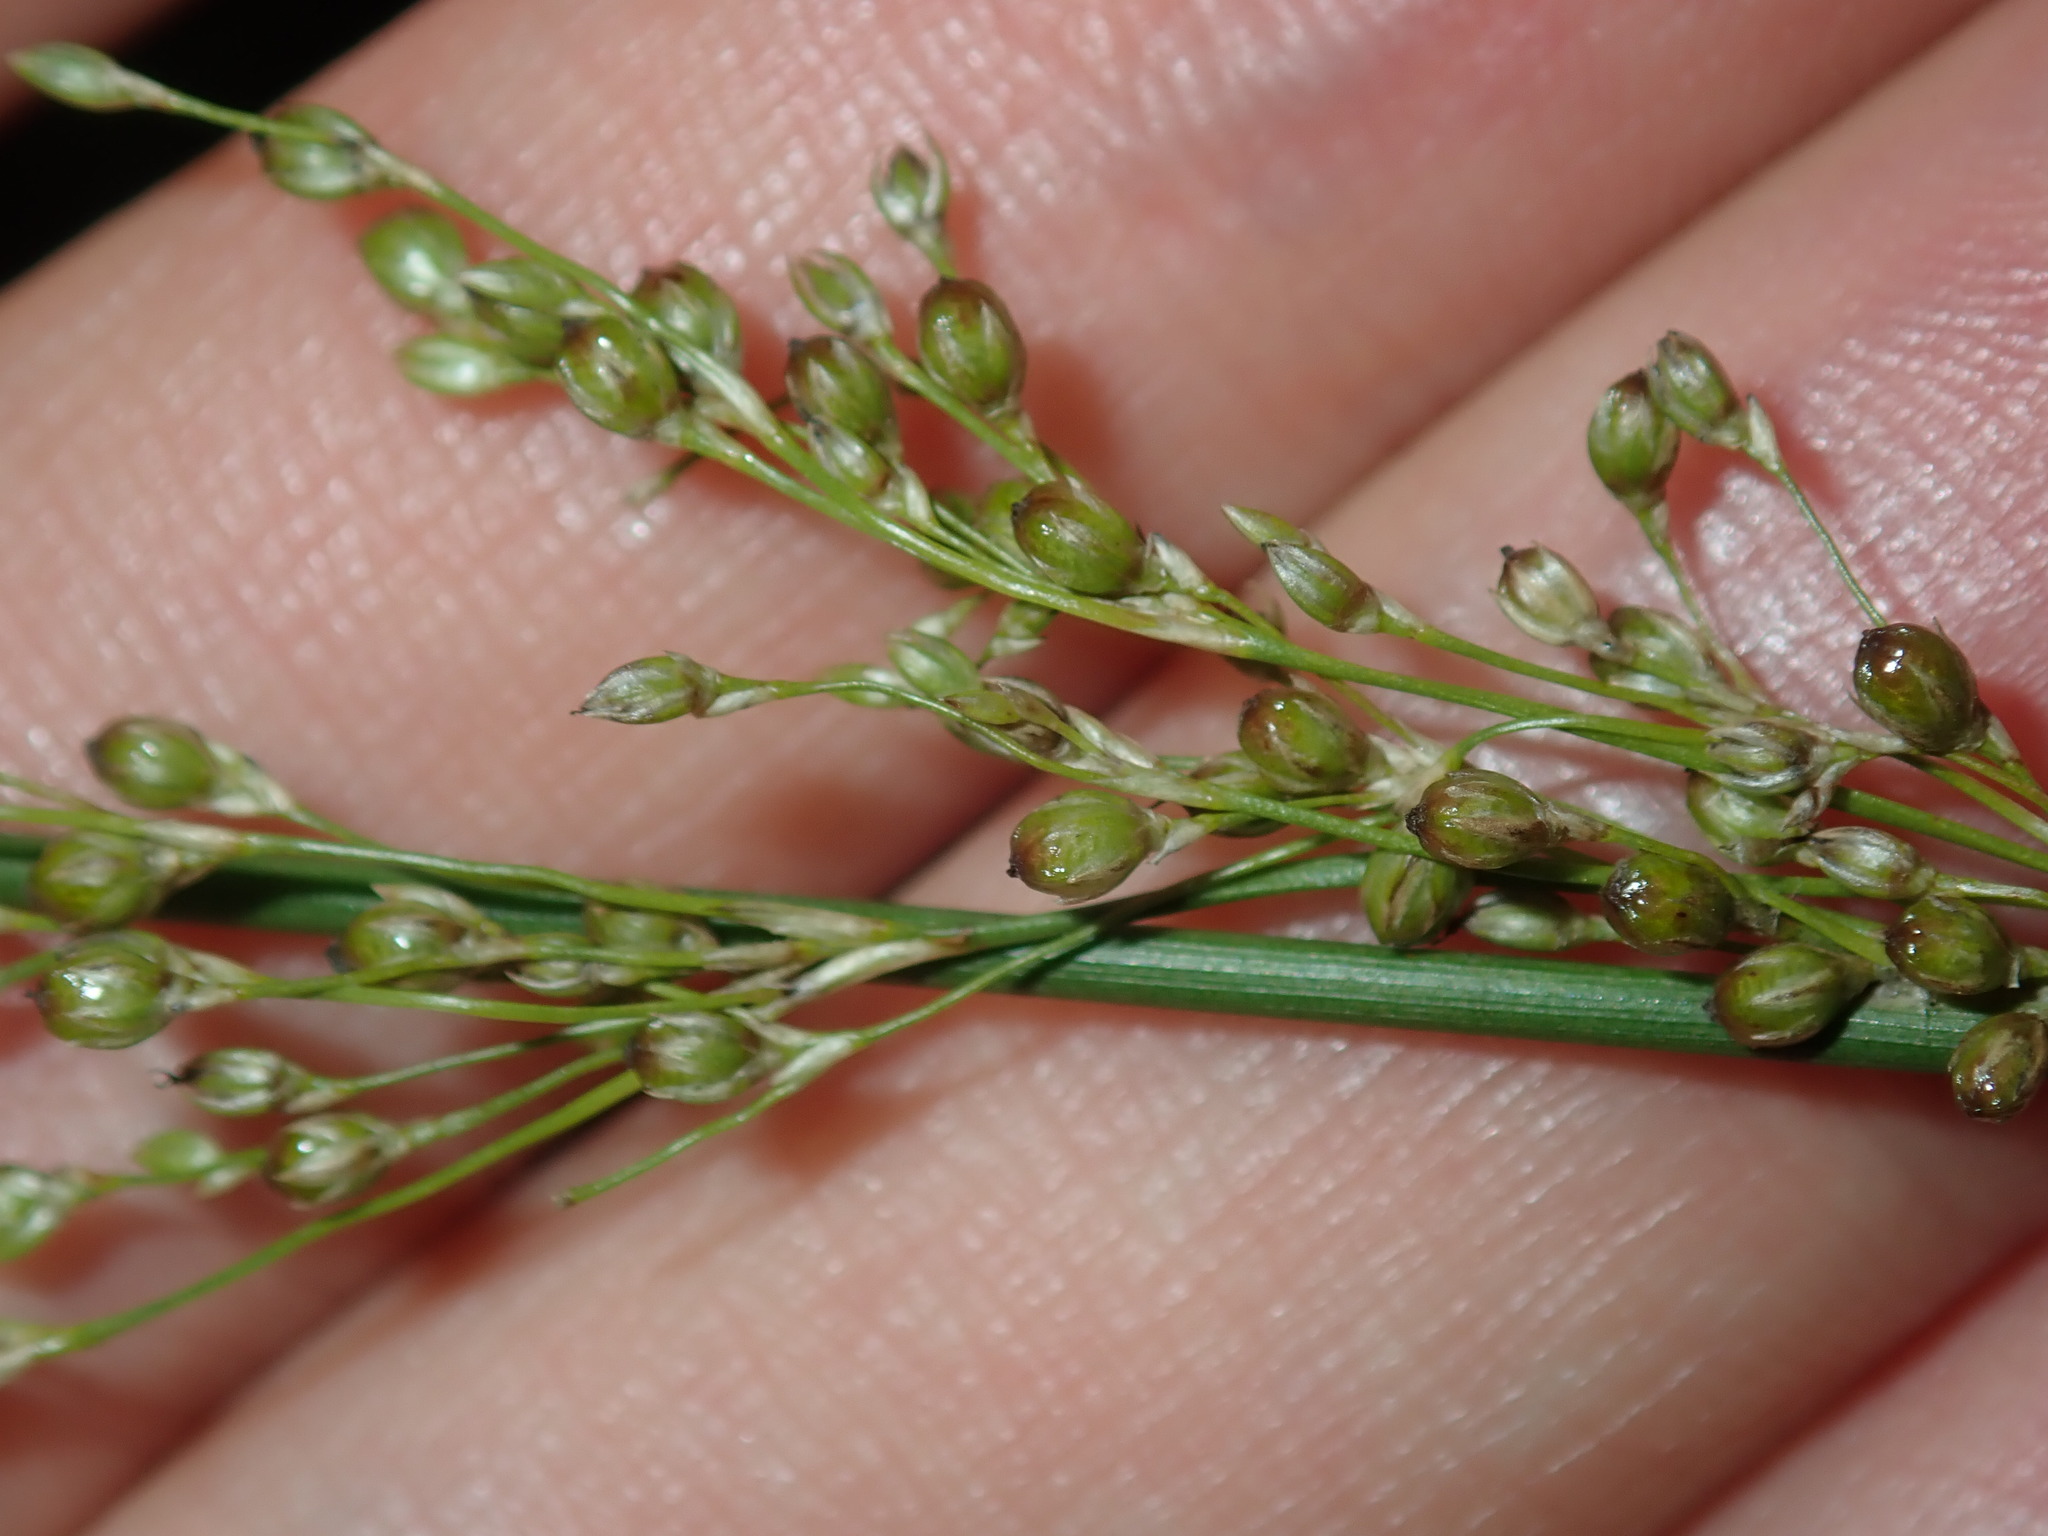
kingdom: Plantae
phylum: Tracheophyta
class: Liliopsida
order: Poales
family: Juncaceae
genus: Juncus
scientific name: Juncus usitatus
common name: Rush
